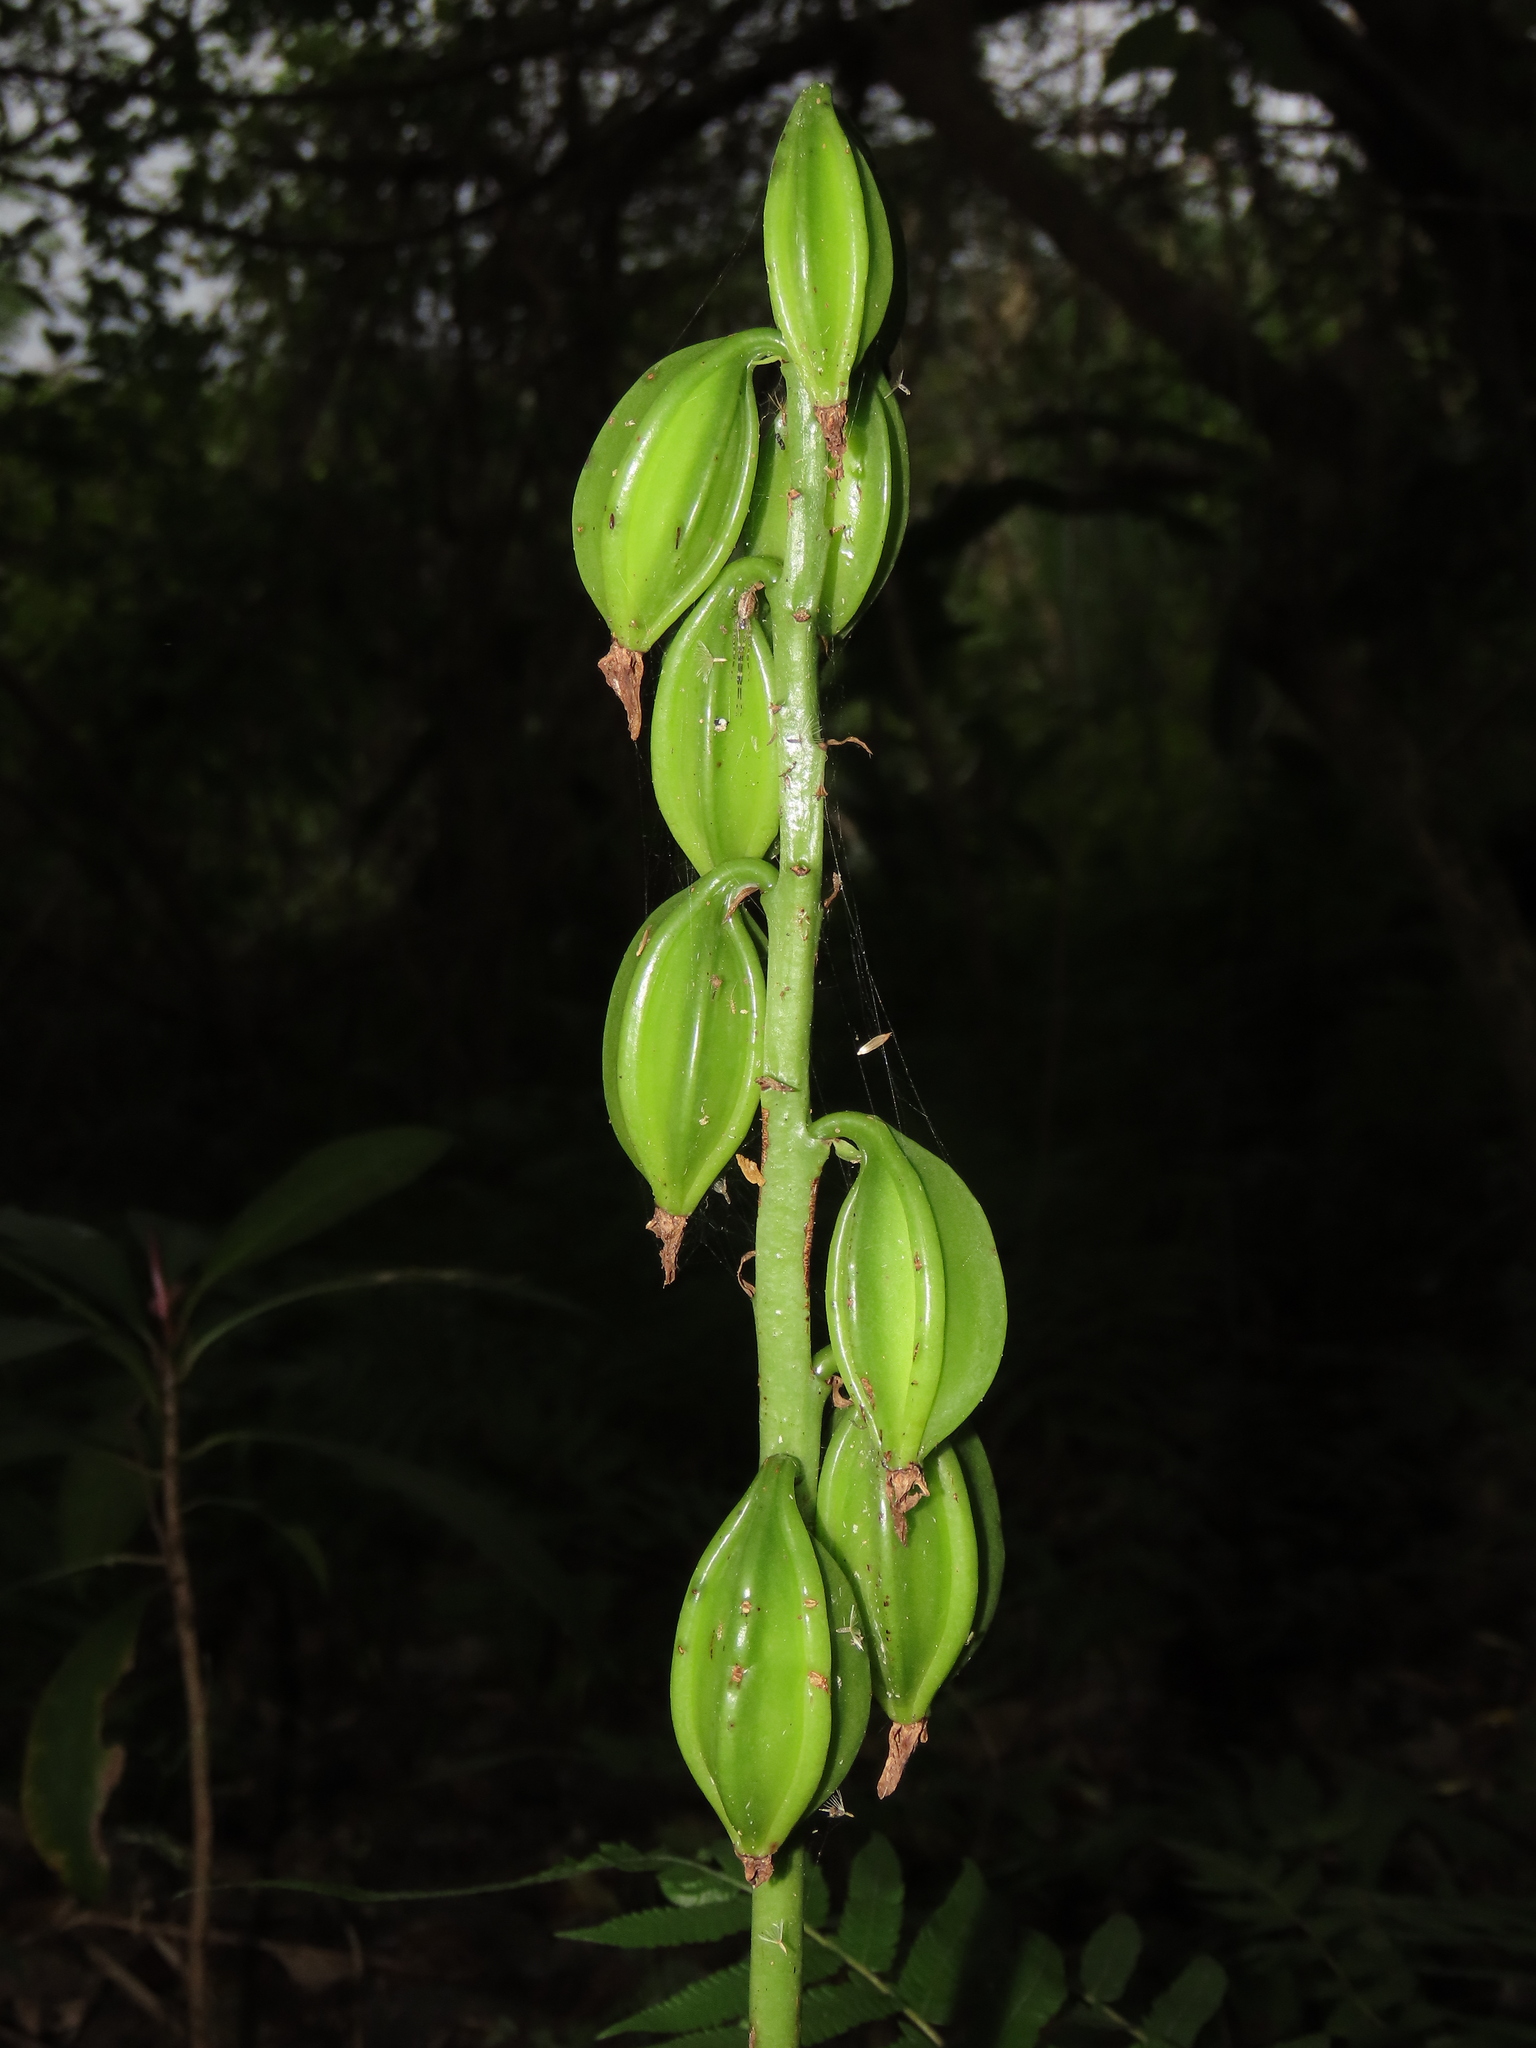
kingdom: Plantae
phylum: Tracheophyta
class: Liliopsida
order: Asparagales
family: Orchidaceae
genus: Eulophia
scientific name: Eulophia cernua
